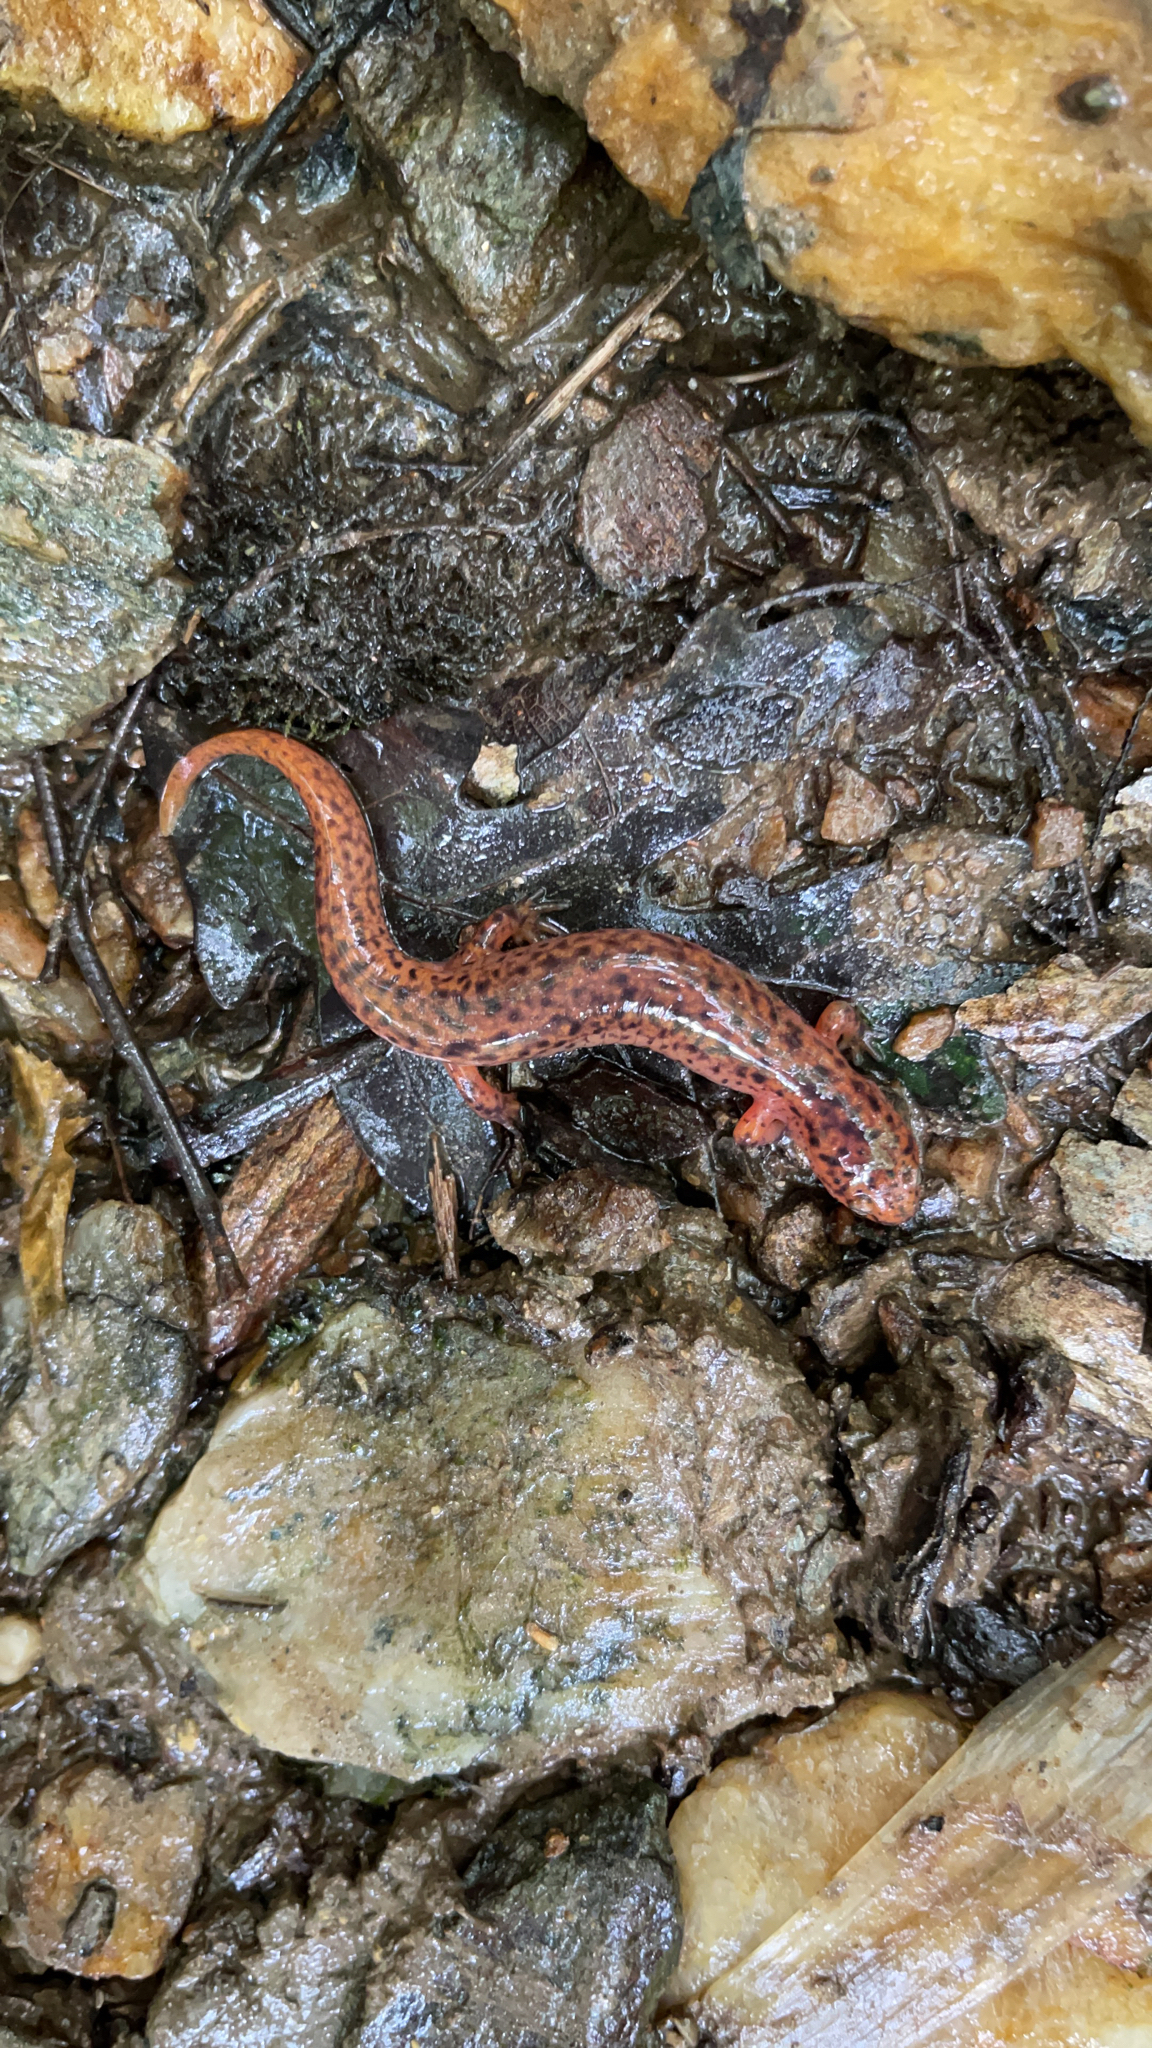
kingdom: Animalia
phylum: Chordata
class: Amphibia
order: Caudata
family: Plethodontidae
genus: Pseudotriton
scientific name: Pseudotriton ruber
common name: Red salamander
